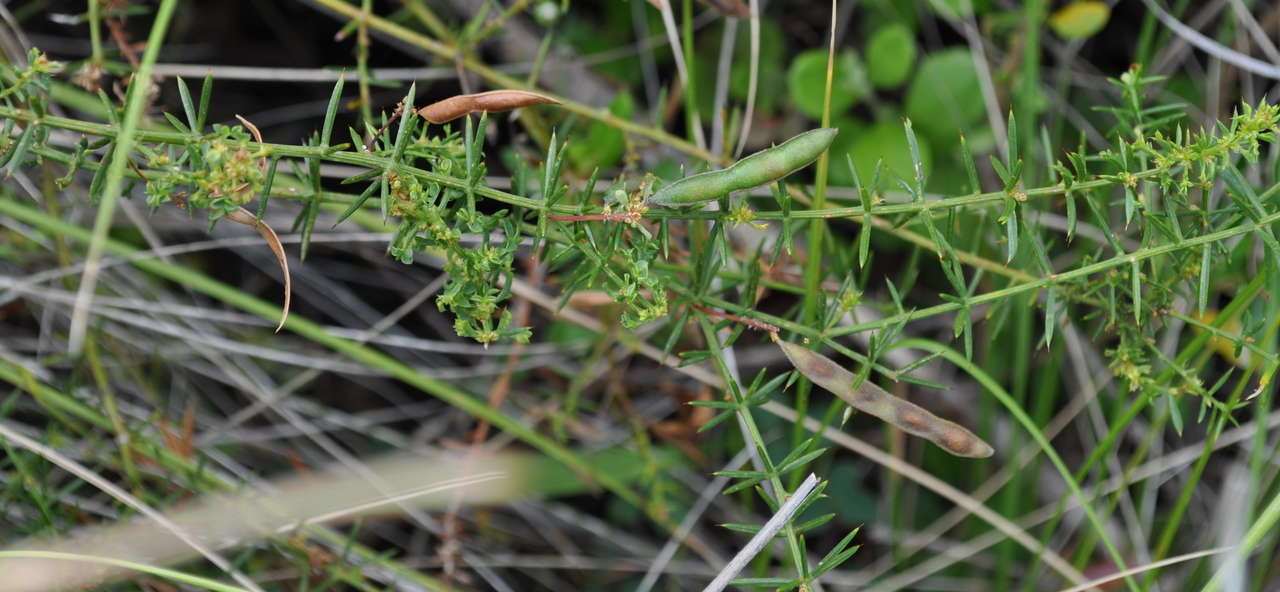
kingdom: Plantae
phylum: Tracheophyta
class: Magnoliopsida
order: Fabales
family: Fabaceae
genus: Acacia
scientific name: Acacia verticillata
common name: Prickly moses
